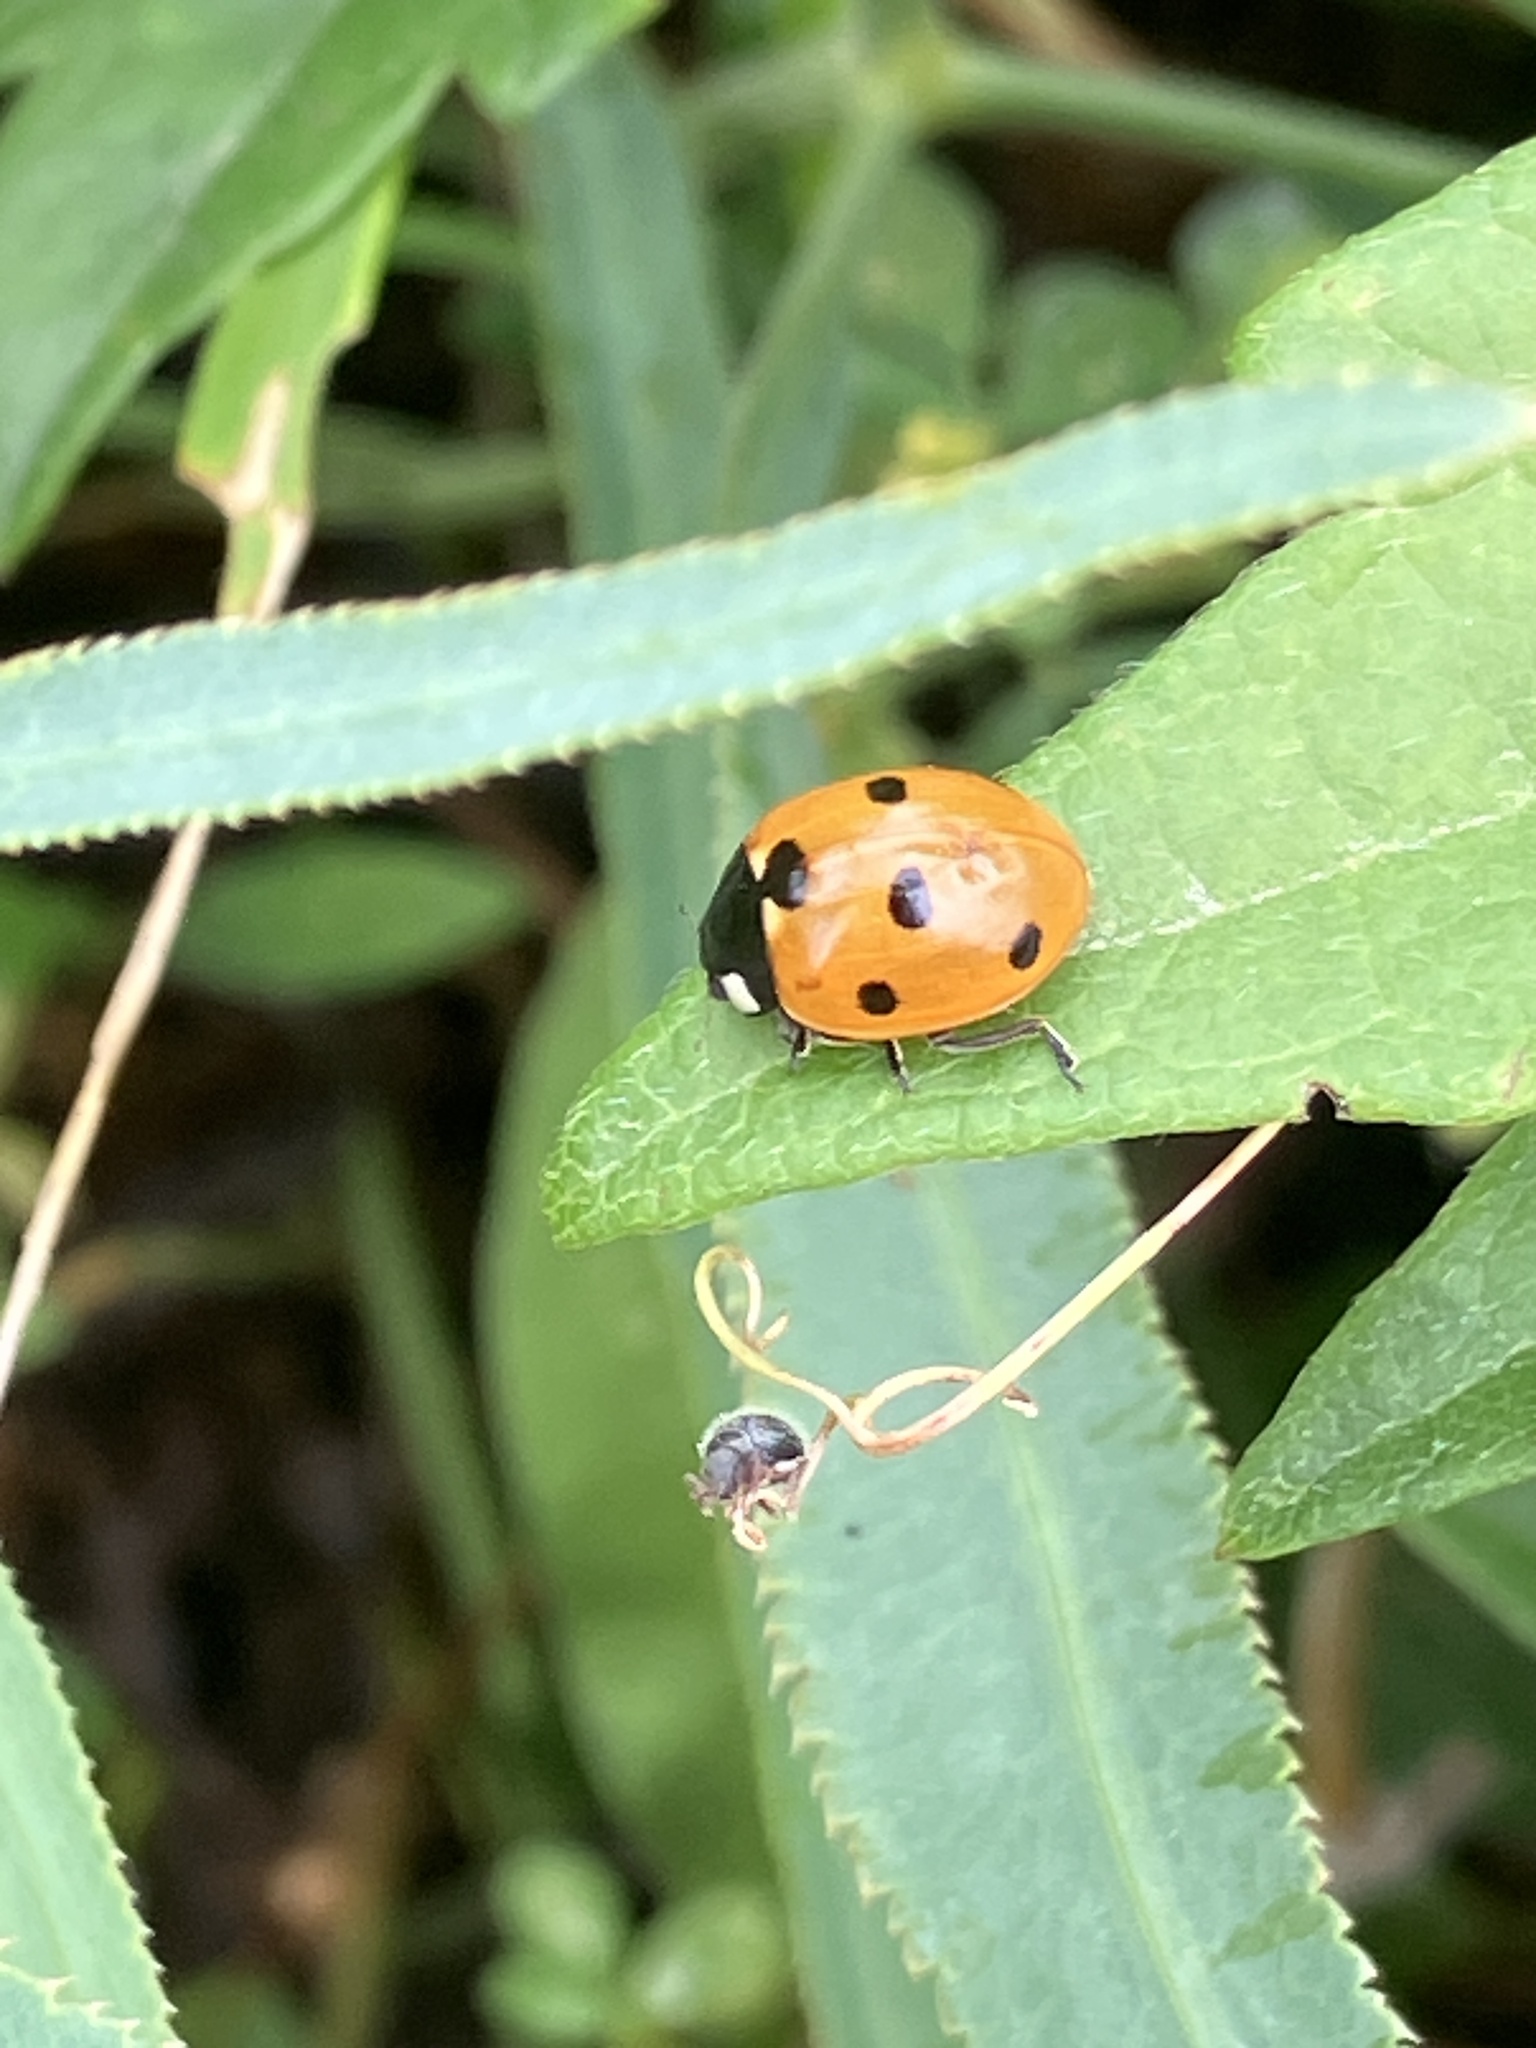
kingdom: Animalia
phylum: Arthropoda
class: Insecta
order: Coleoptera
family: Coccinellidae
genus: Coccinella
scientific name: Coccinella septempunctata
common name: Sevenspotted lady beetle
